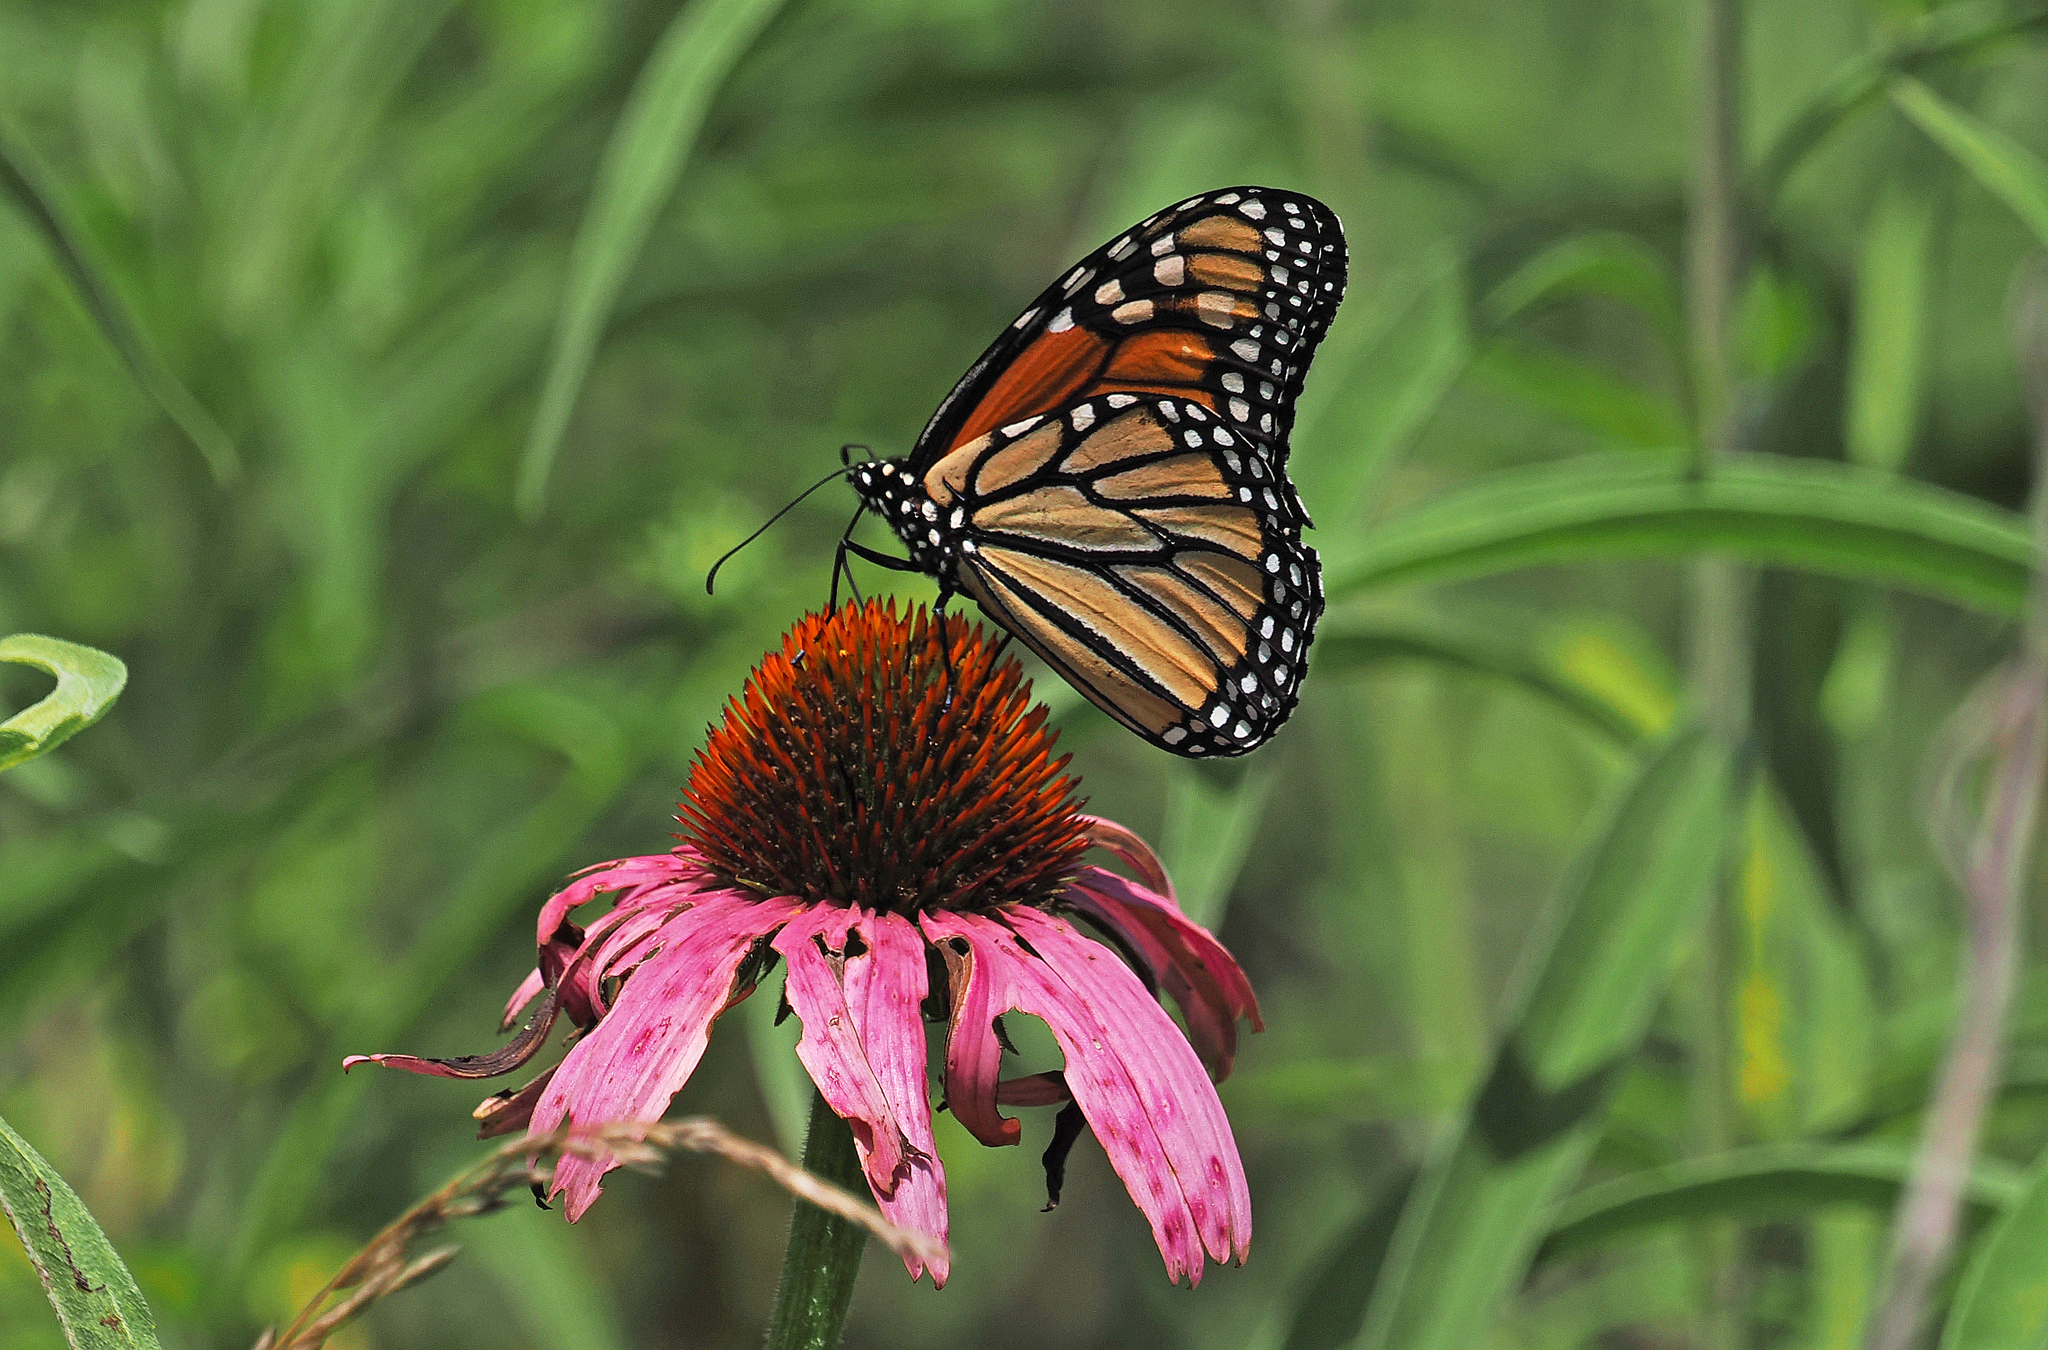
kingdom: Animalia
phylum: Arthropoda
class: Insecta
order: Lepidoptera
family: Nymphalidae
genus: Danaus
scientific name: Danaus plexippus
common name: Monarch
